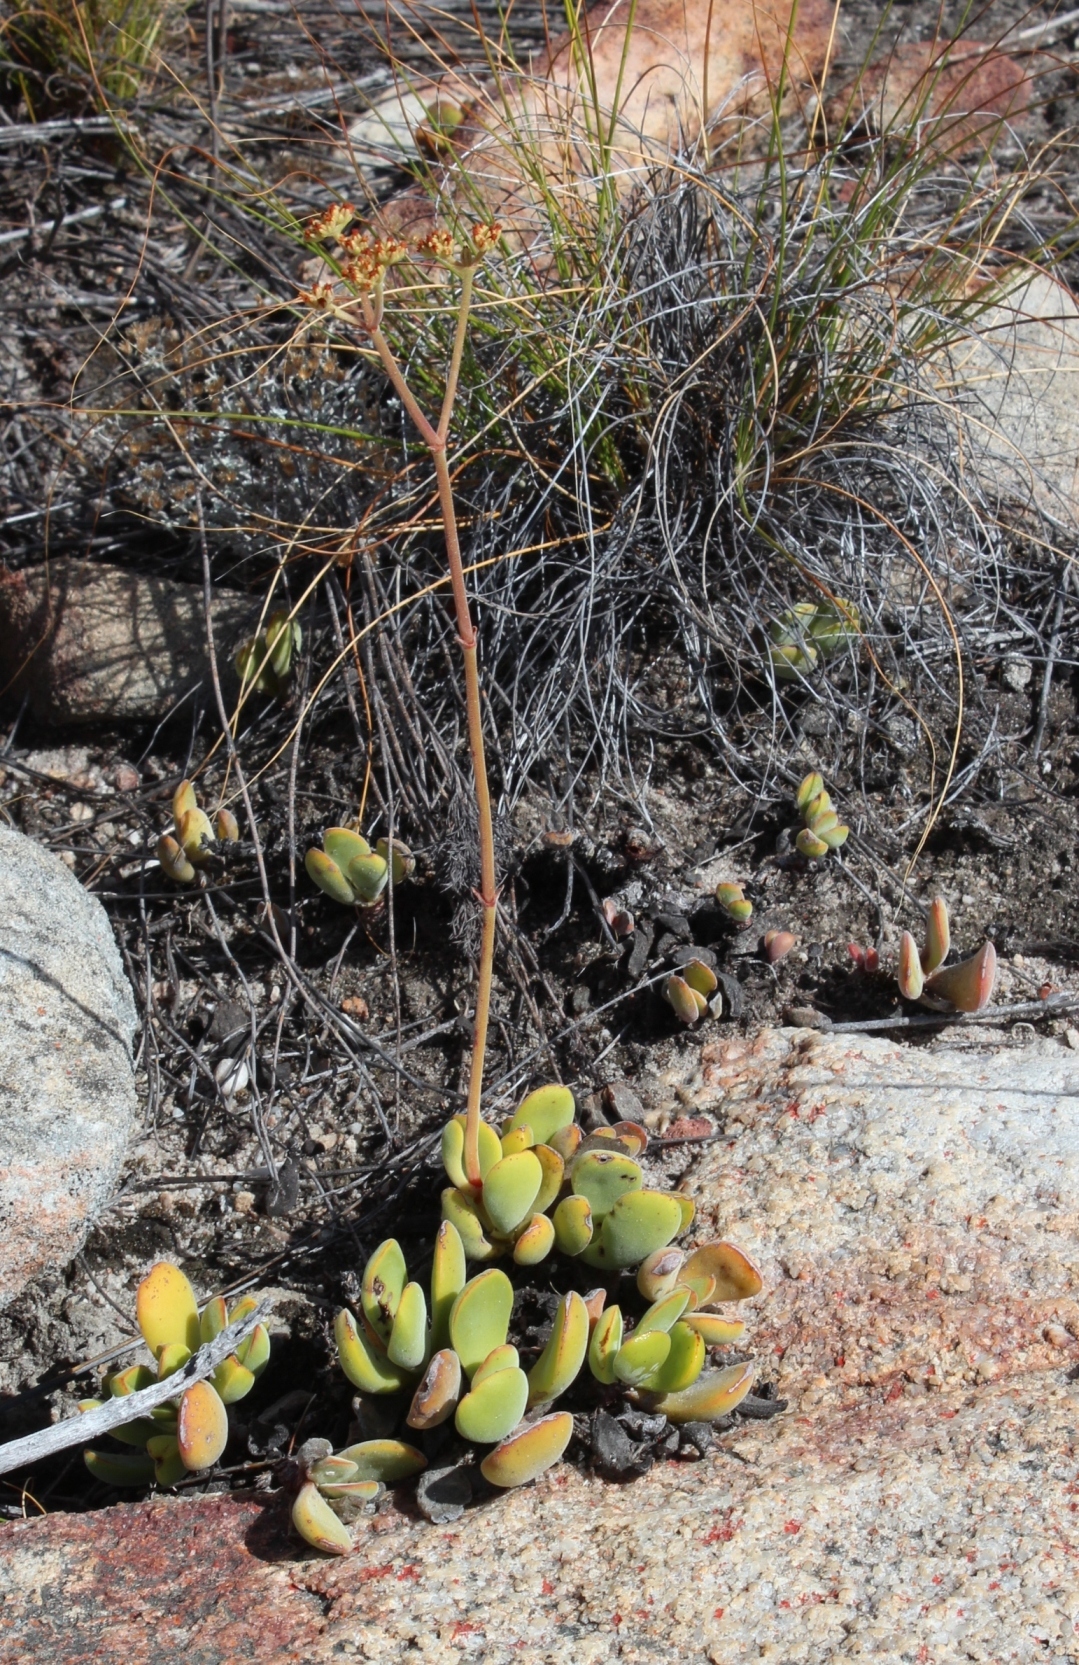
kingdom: Plantae
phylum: Tracheophyta
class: Magnoliopsida
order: Saxifragales
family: Crassulaceae
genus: Crassula
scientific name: Crassula atropurpurea
